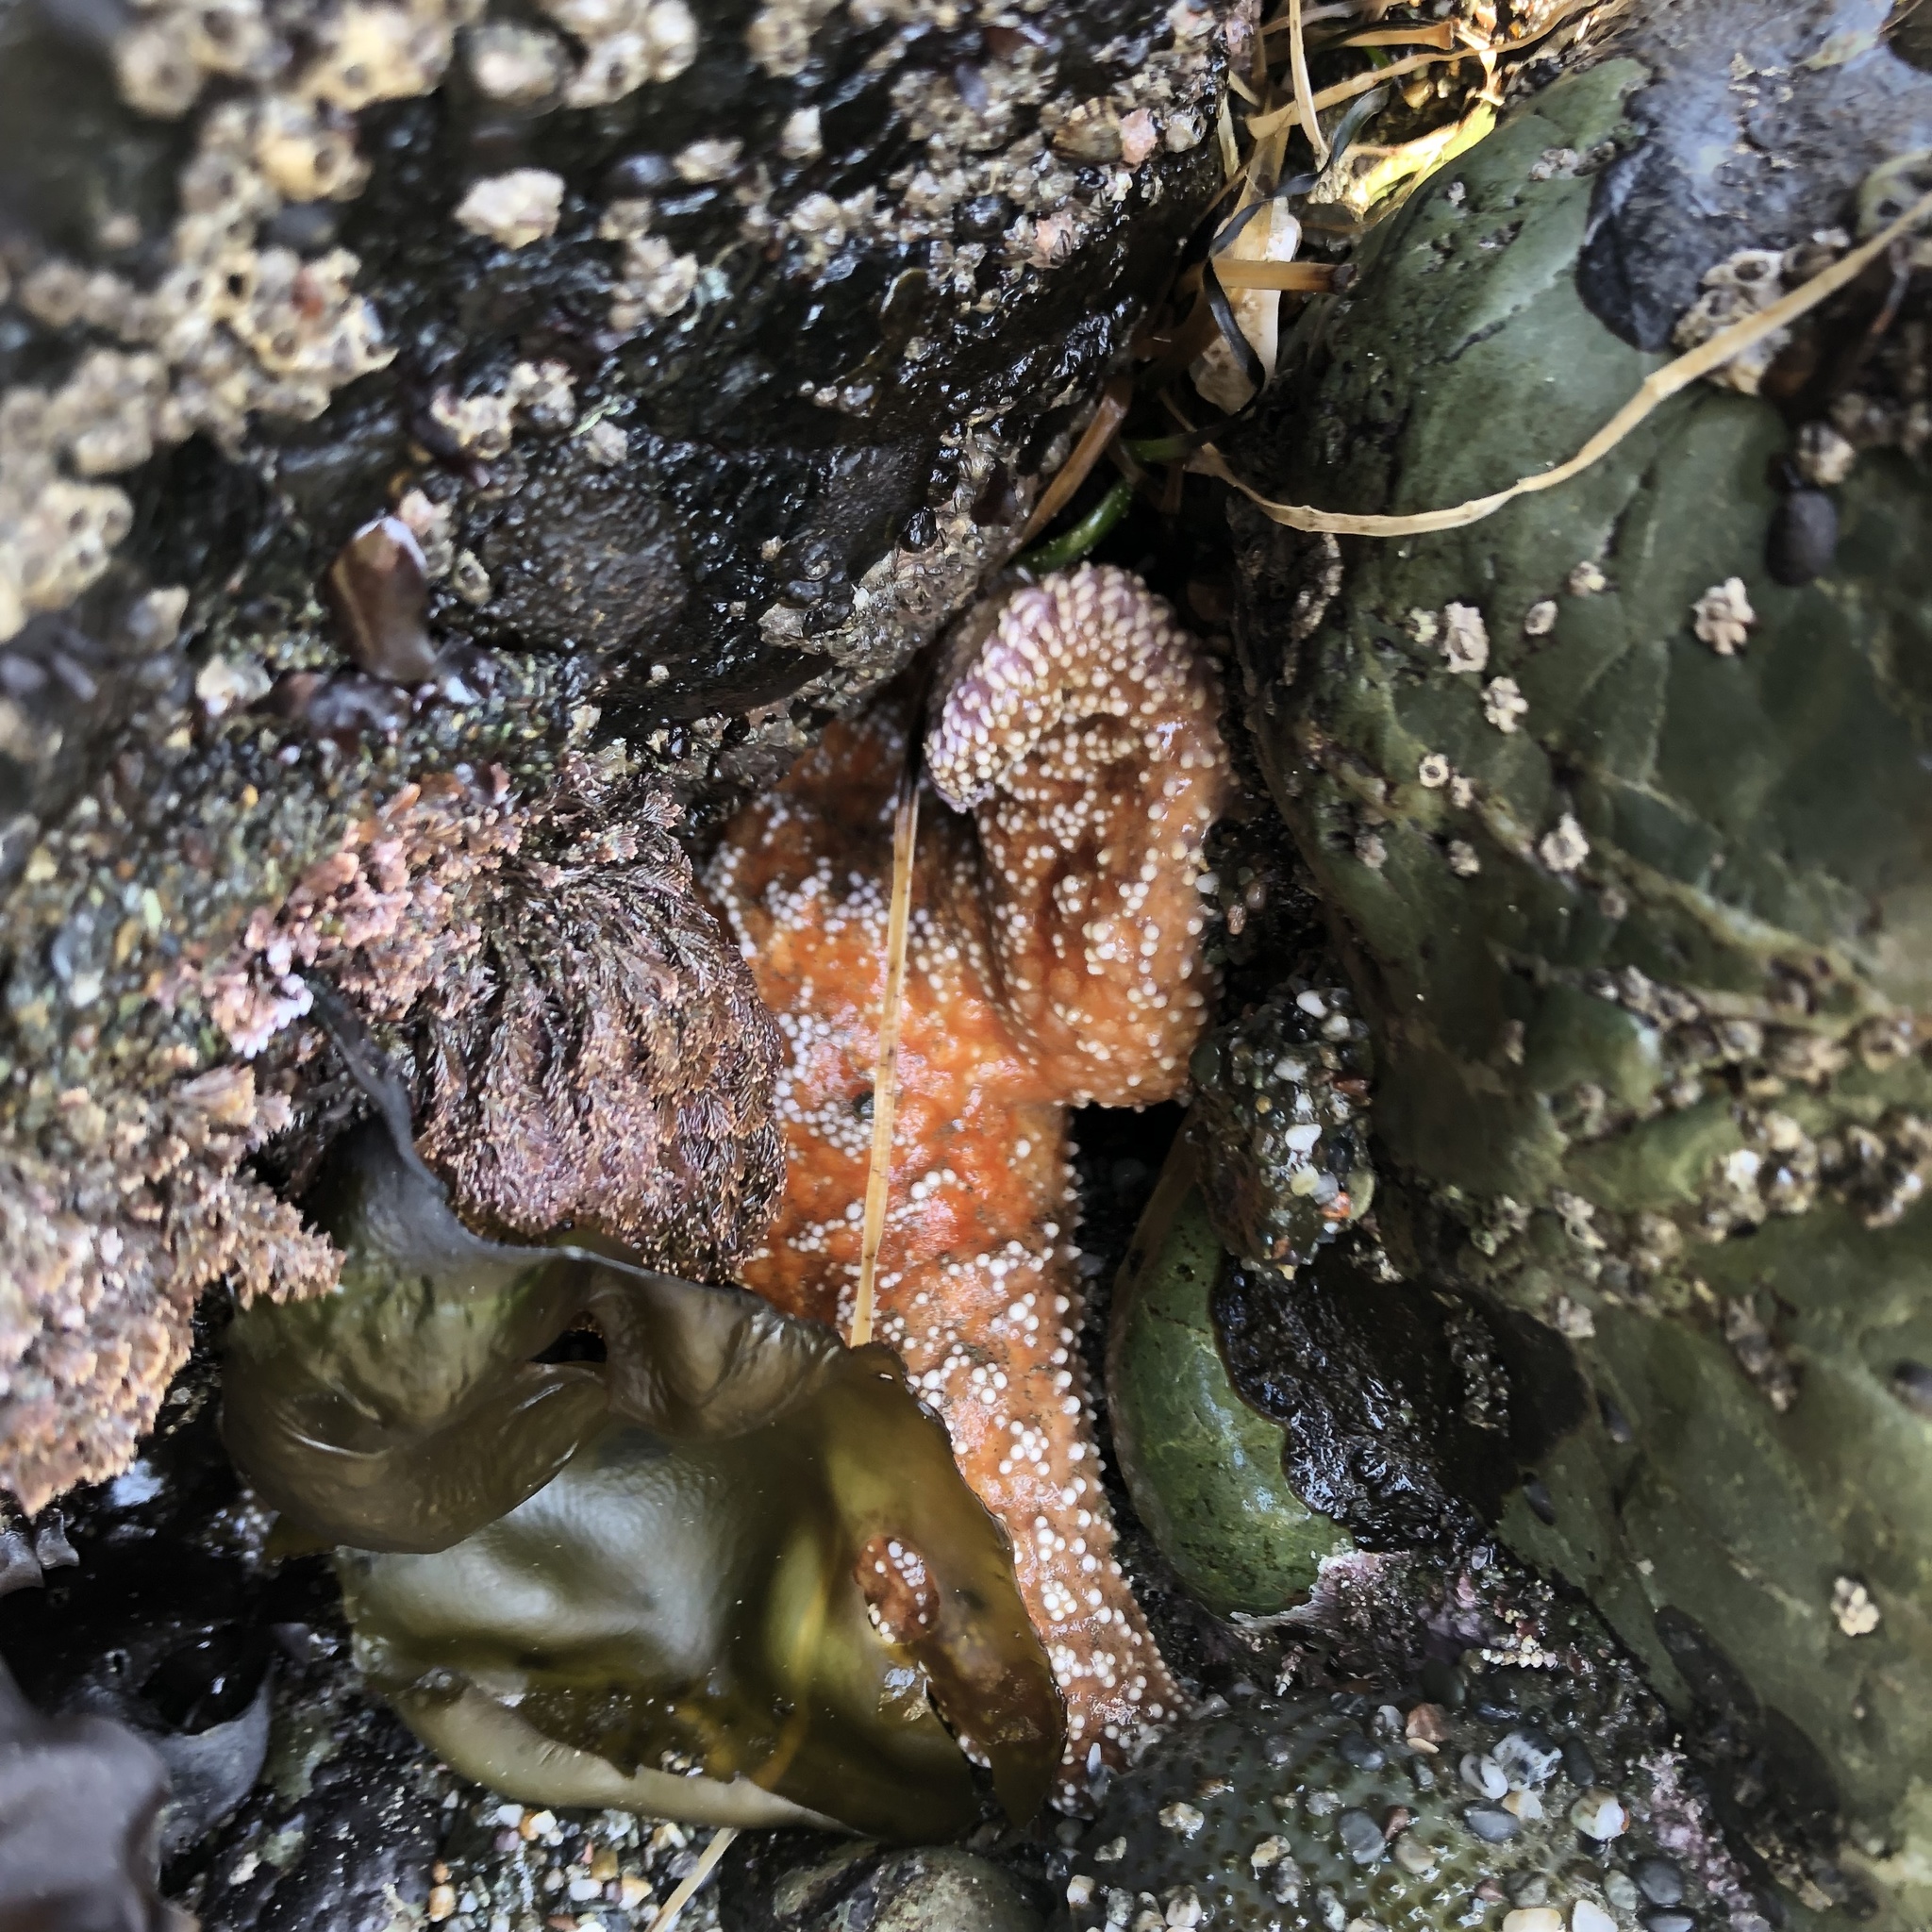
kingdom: Animalia
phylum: Echinodermata
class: Asteroidea
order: Forcipulatida
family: Asteriidae
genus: Pisaster
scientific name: Pisaster ochraceus
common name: Ochre stars
